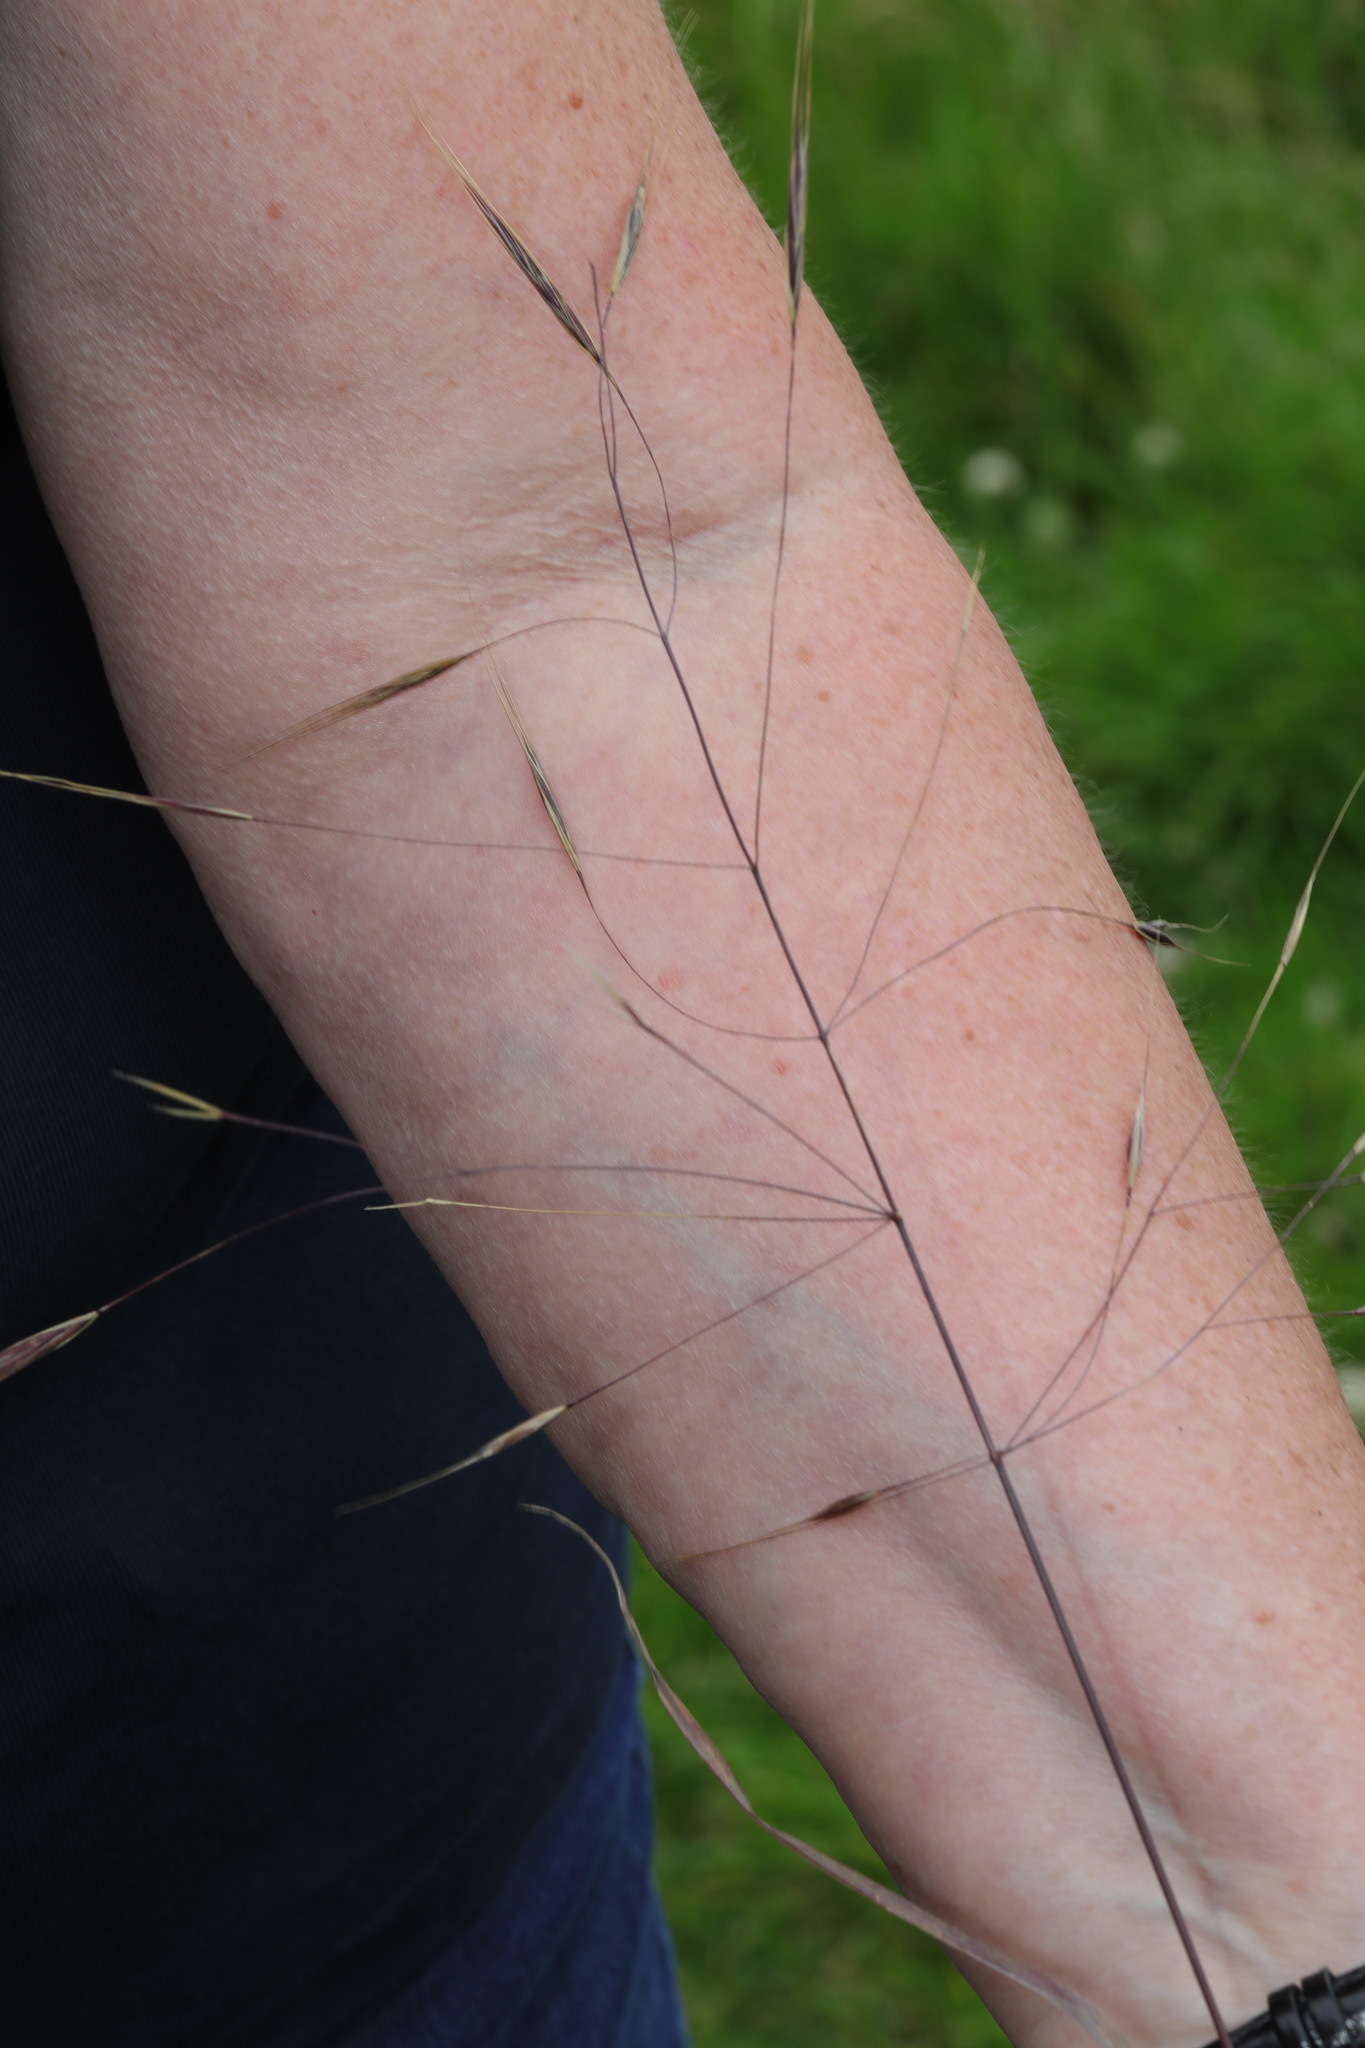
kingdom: Plantae
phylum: Tracheophyta
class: Liliopsida
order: Poales
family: Poaceae
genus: Bromus
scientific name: Bromus sterilis
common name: Poverty brome
